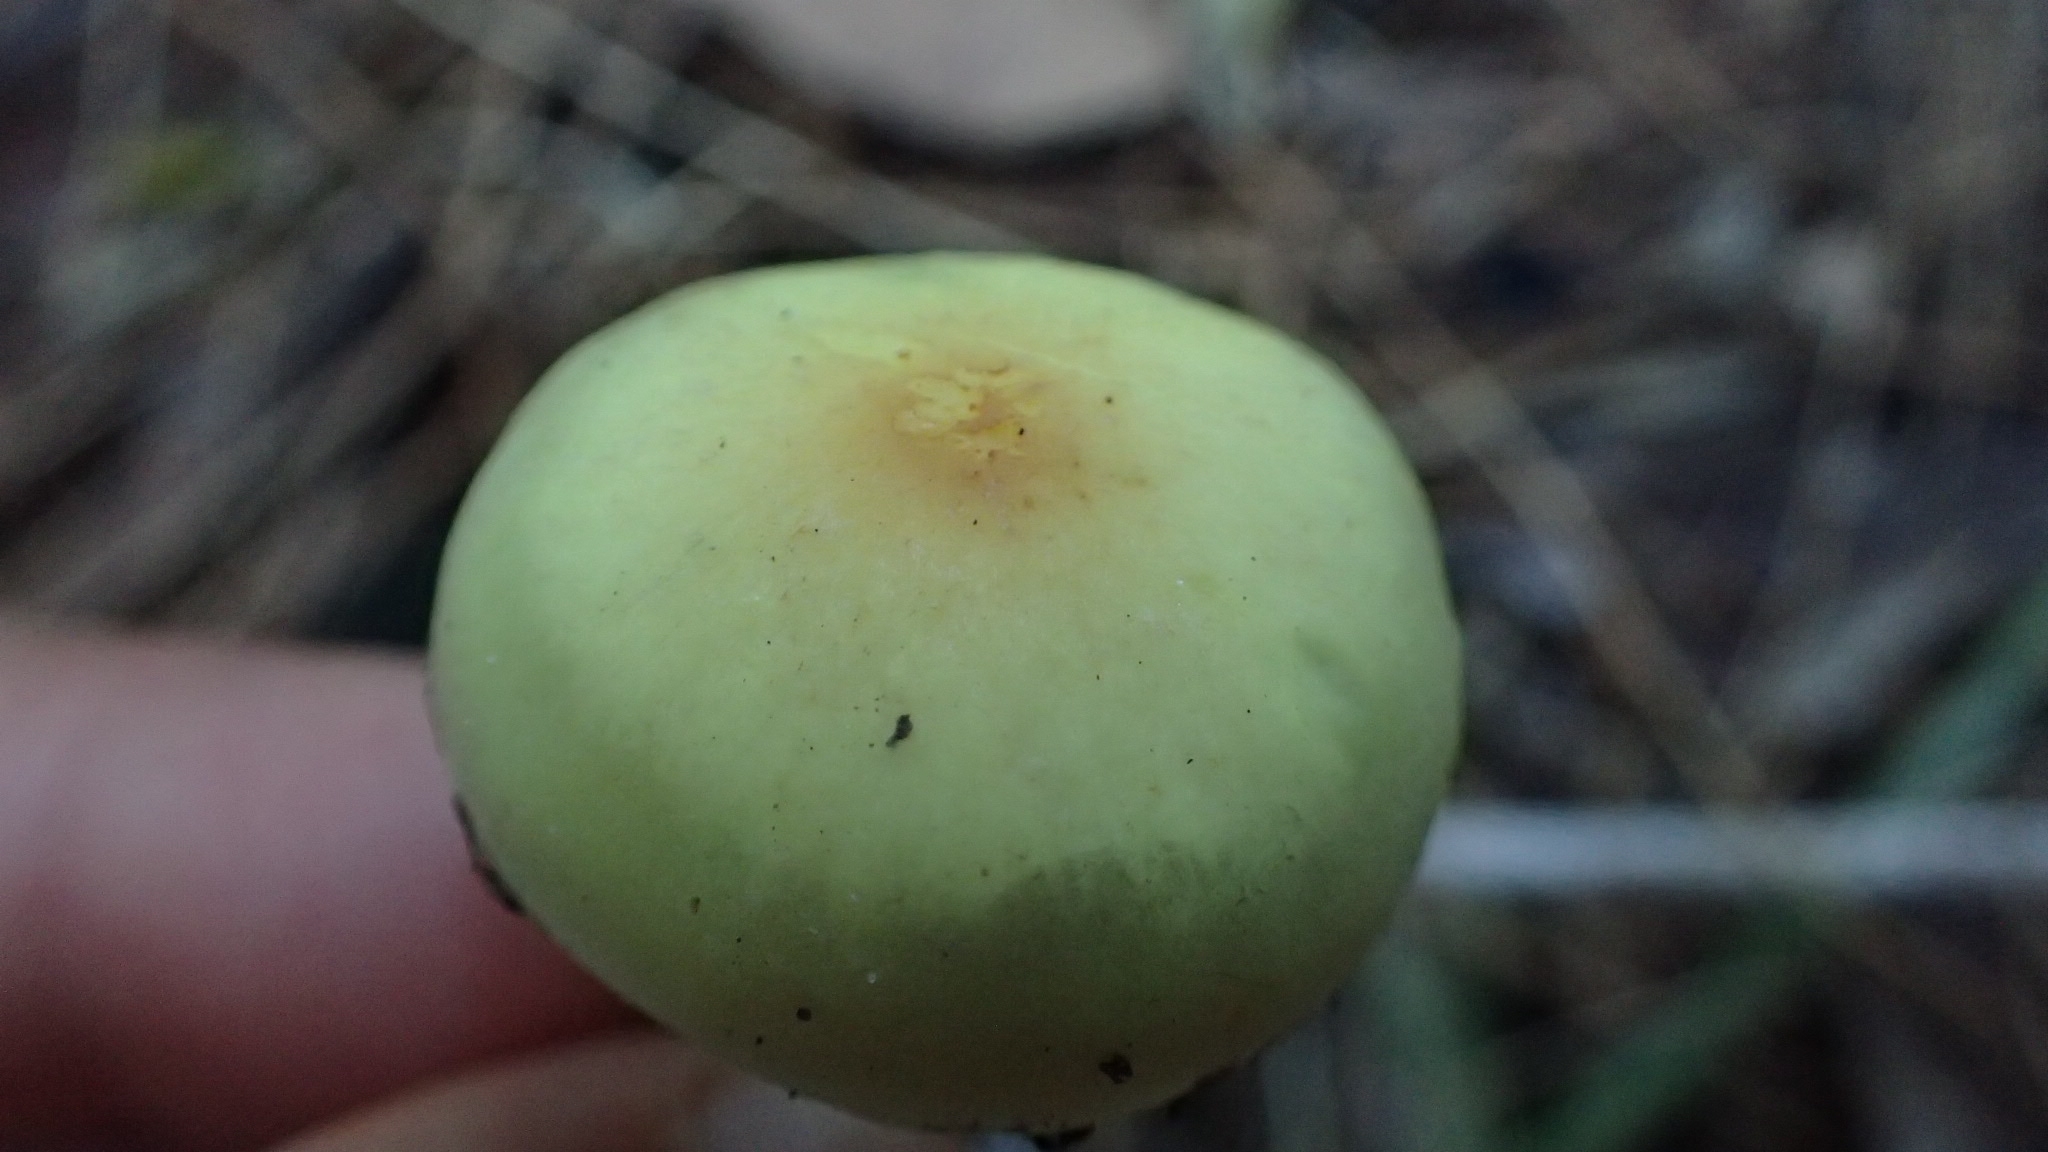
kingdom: Fungi
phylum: Basidiomycota
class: Agaricomycetes
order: Agaricales
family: Strophariaceae
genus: Hypholoma
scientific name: Hypholoma fasciculare
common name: Sulphur tuft
